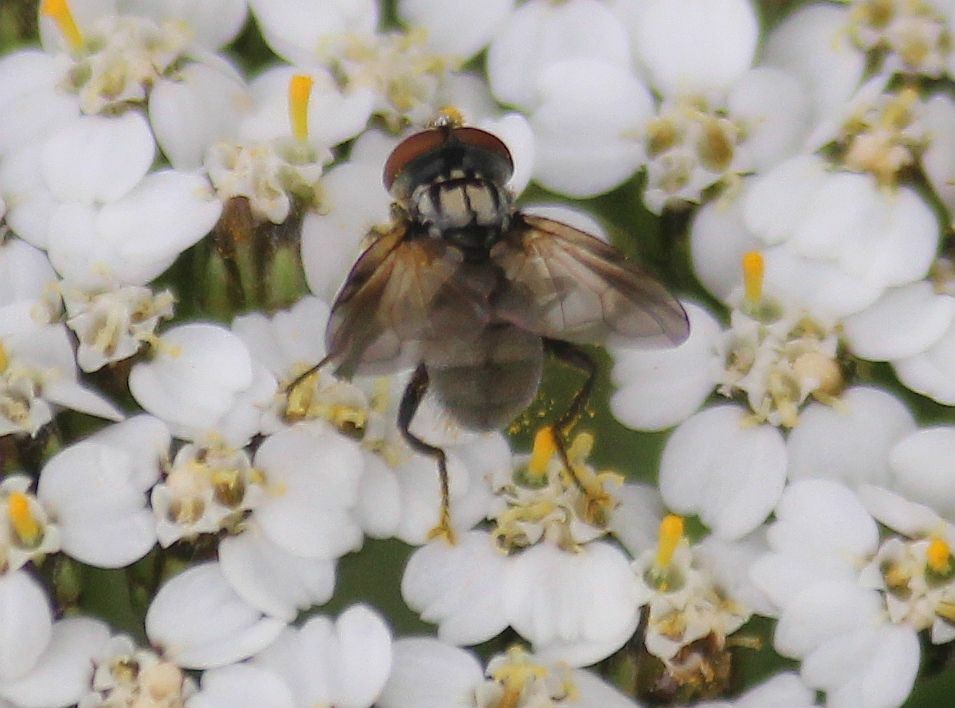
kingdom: Animalia
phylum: Arthropoda
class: Insecta
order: Diptera
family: Tachinidae
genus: Phasia
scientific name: Phasia obesa
